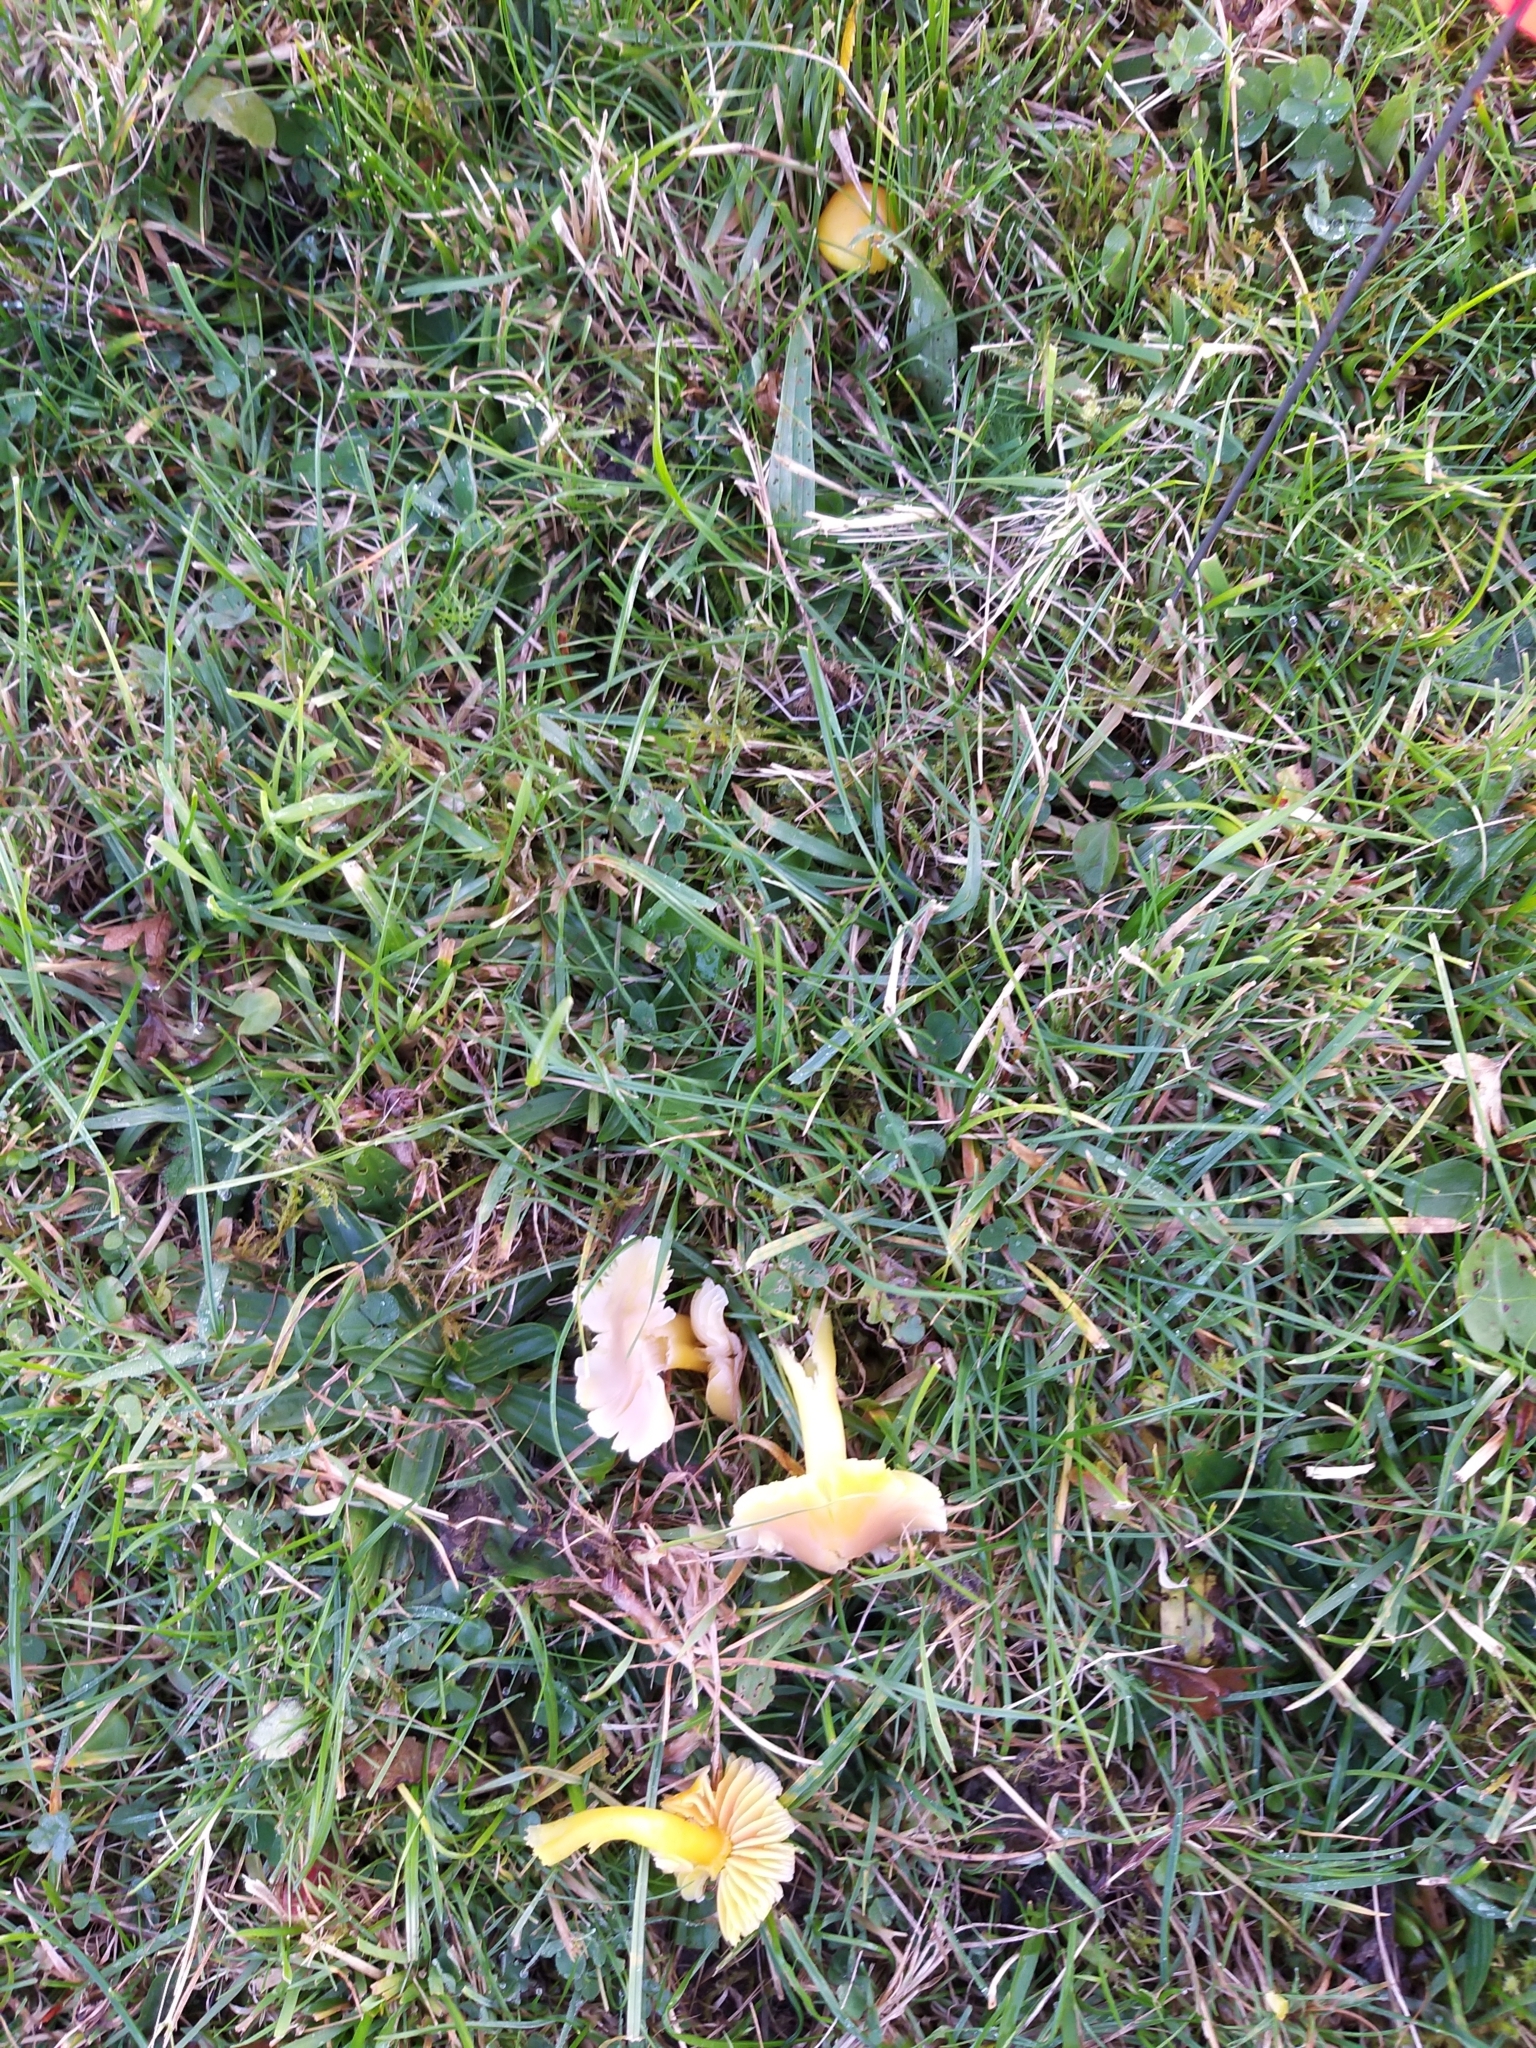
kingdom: Fungi
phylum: Basidiomycota
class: Agaricomycetes
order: Agaricales
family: Hygrophoraceae
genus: Gliophorus
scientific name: Gliophorus psittacinus
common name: Parrot wax-cap
